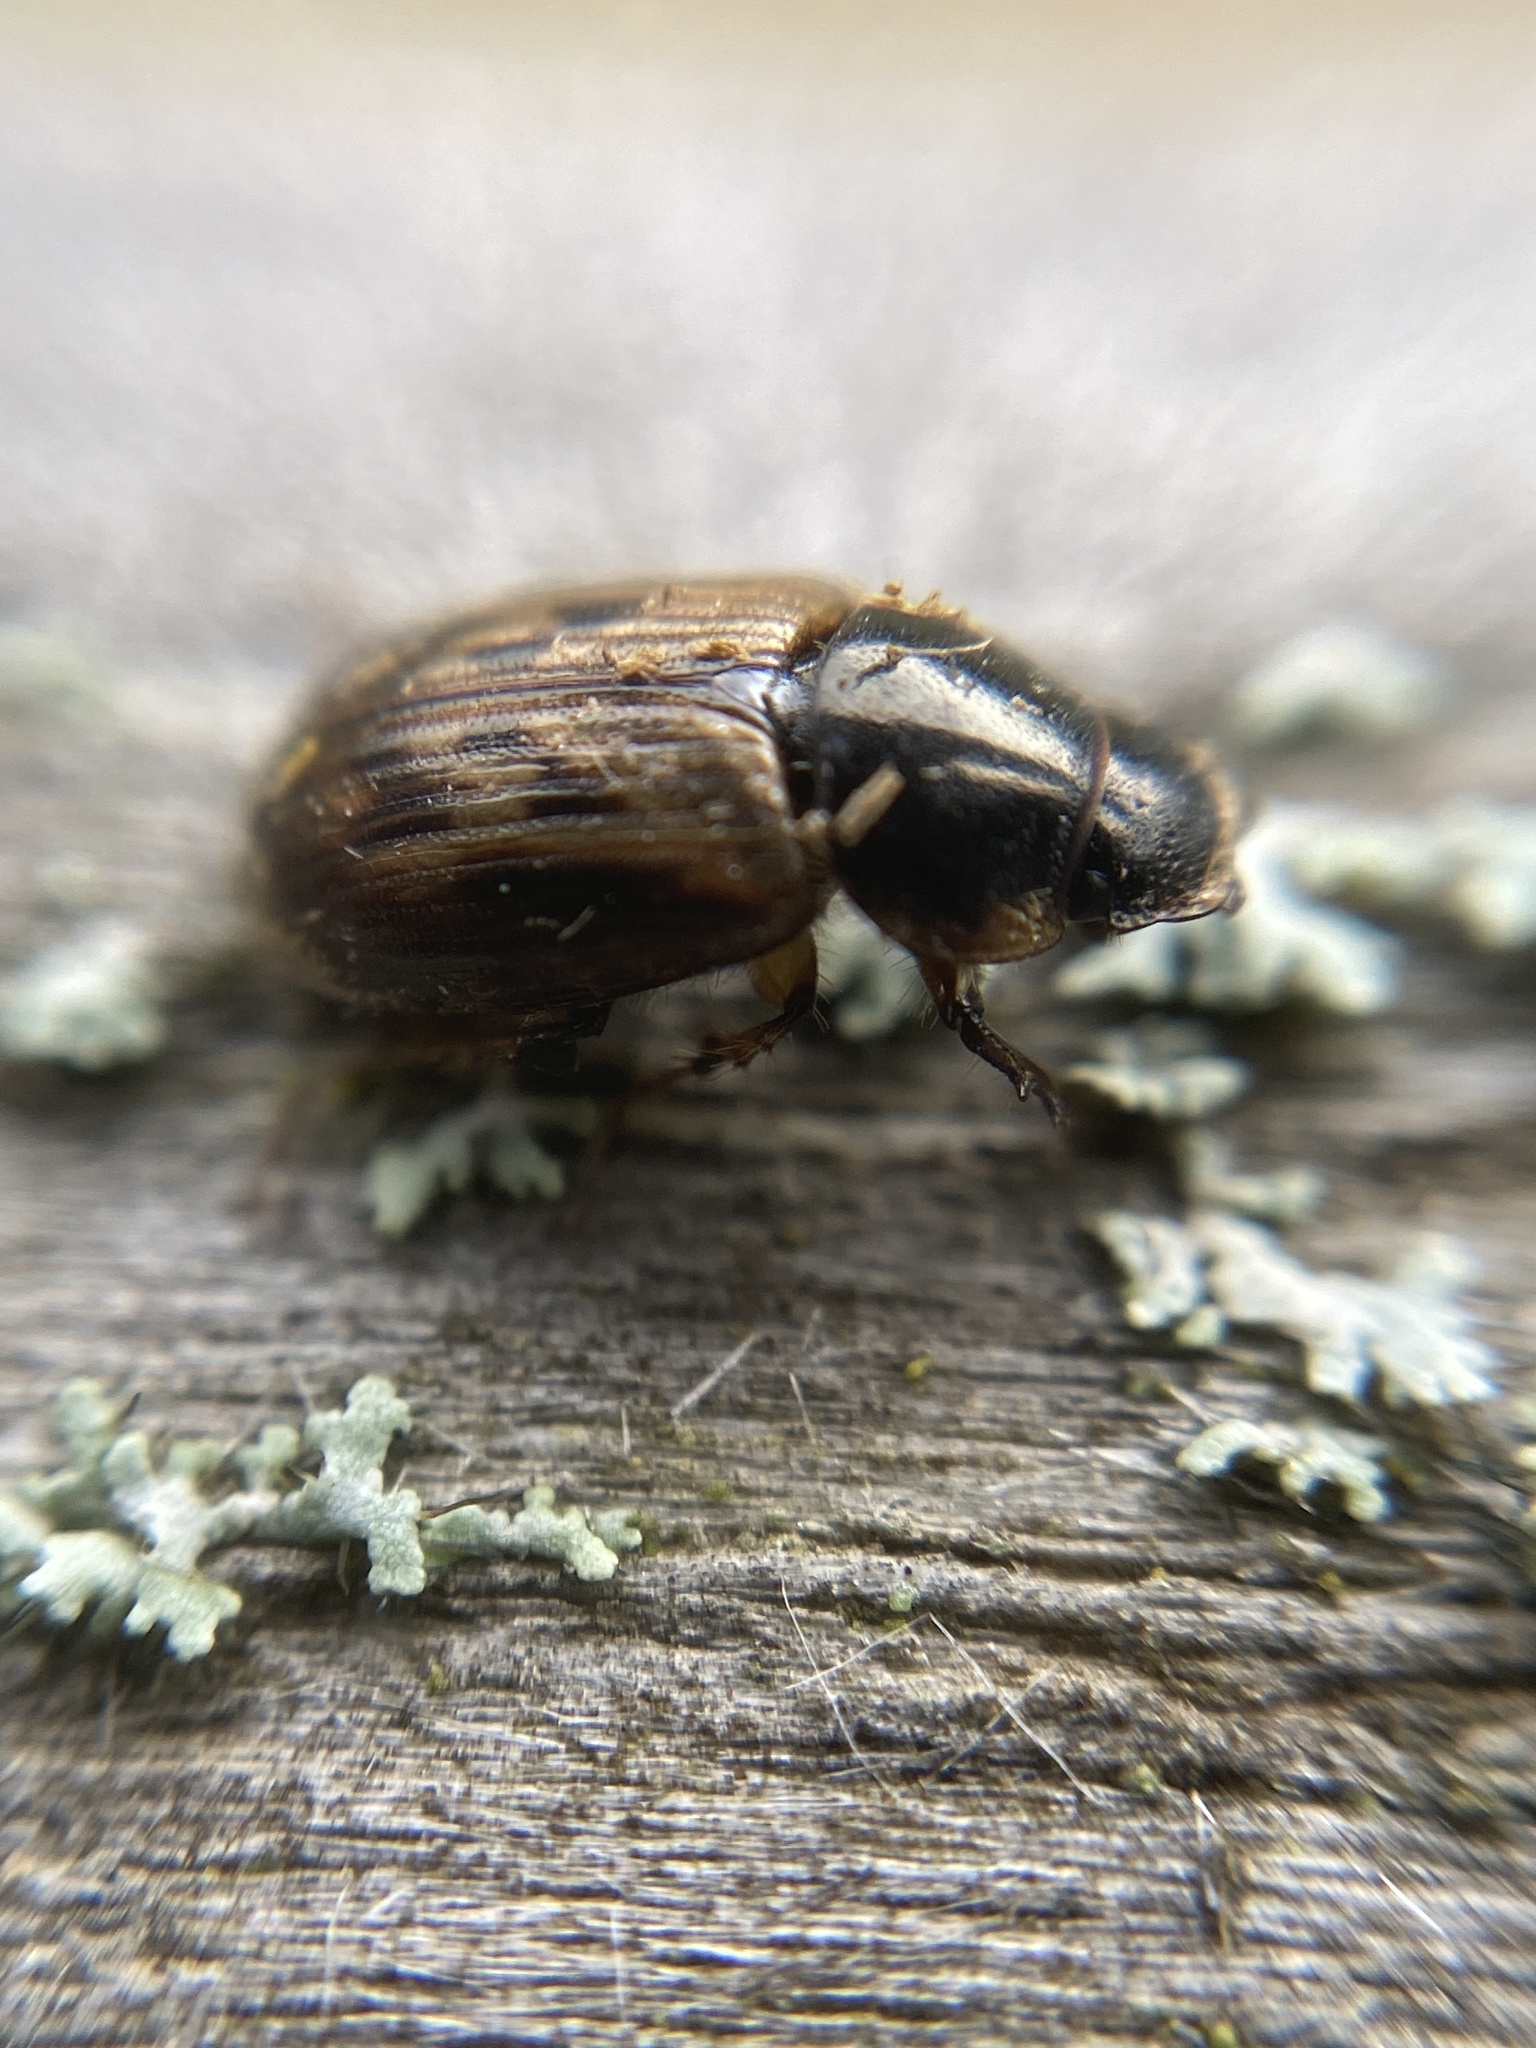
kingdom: Animalia
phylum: Arthropoda
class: Insecta
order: Coleoptera
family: Scarabaeidae
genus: Nimbus
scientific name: Nimbus contaminatus
